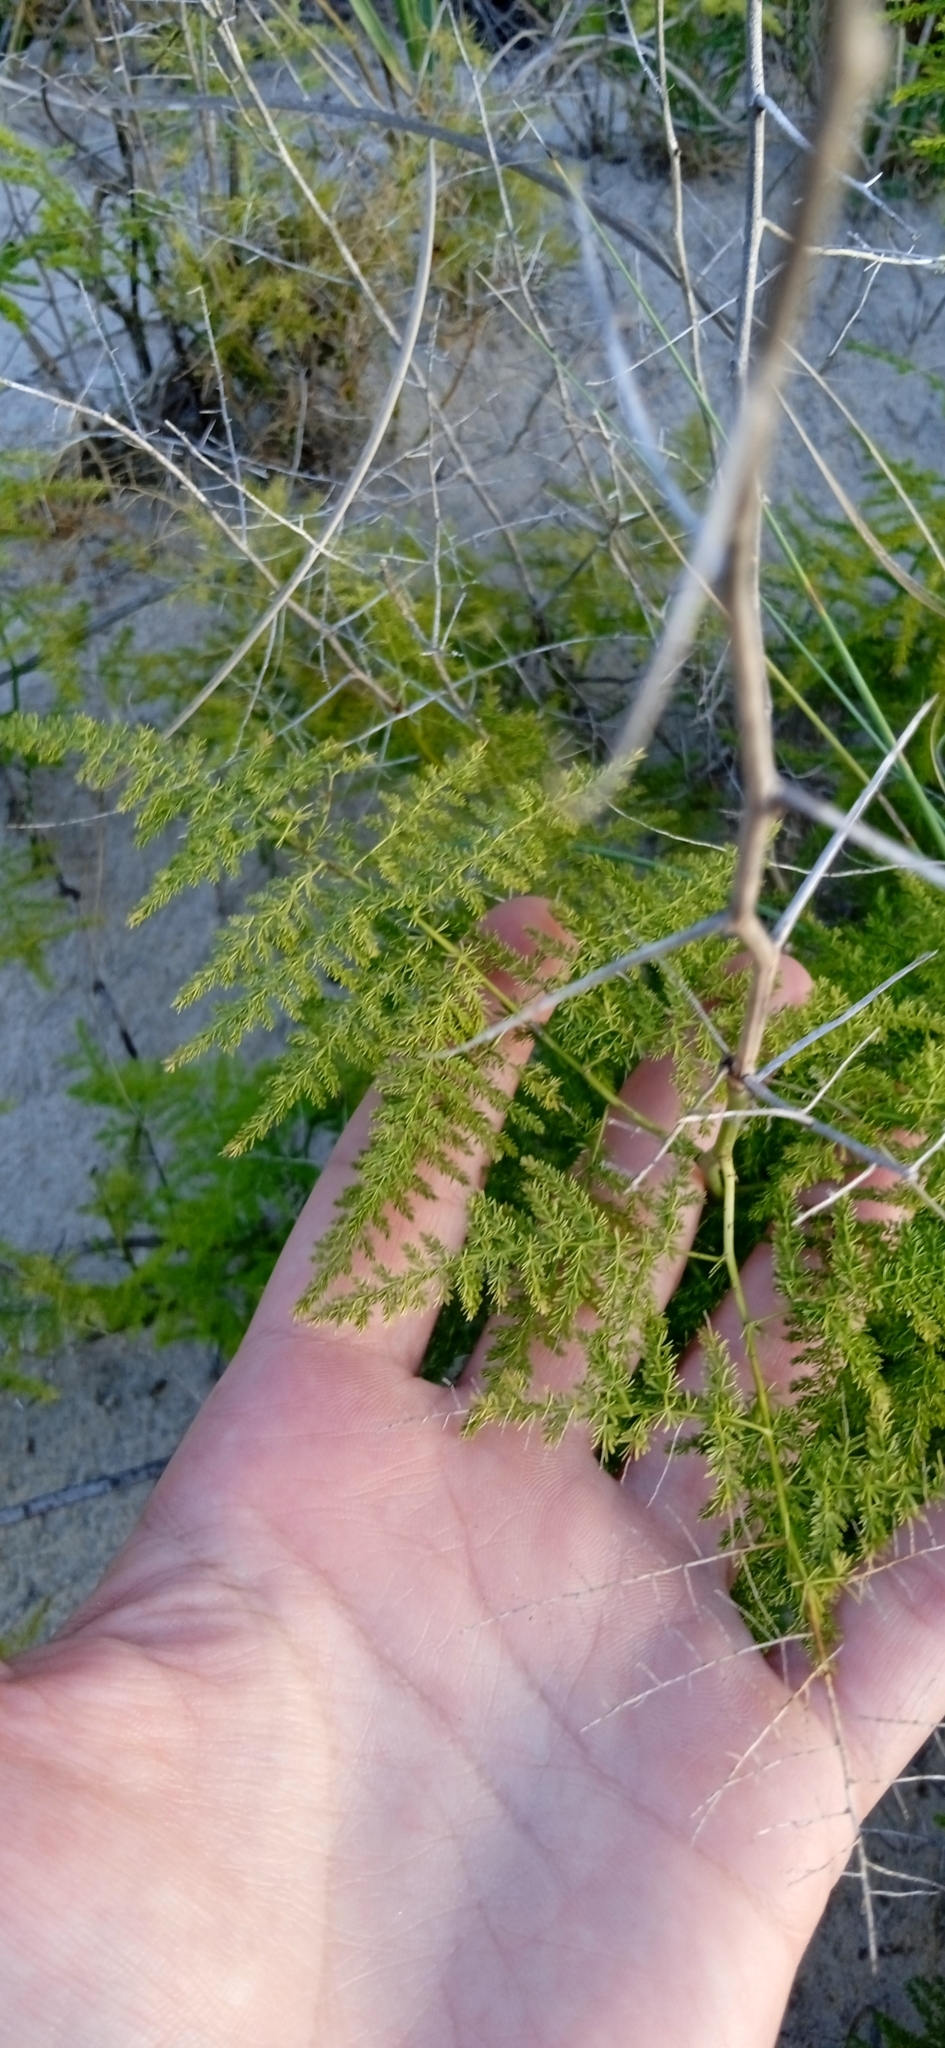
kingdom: Plantae
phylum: Tracheophyta
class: Liliopsida
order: Asparagales
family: Asparagaceae
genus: Asparagus
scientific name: Asparagus setaceus
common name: Common asparagus fern
